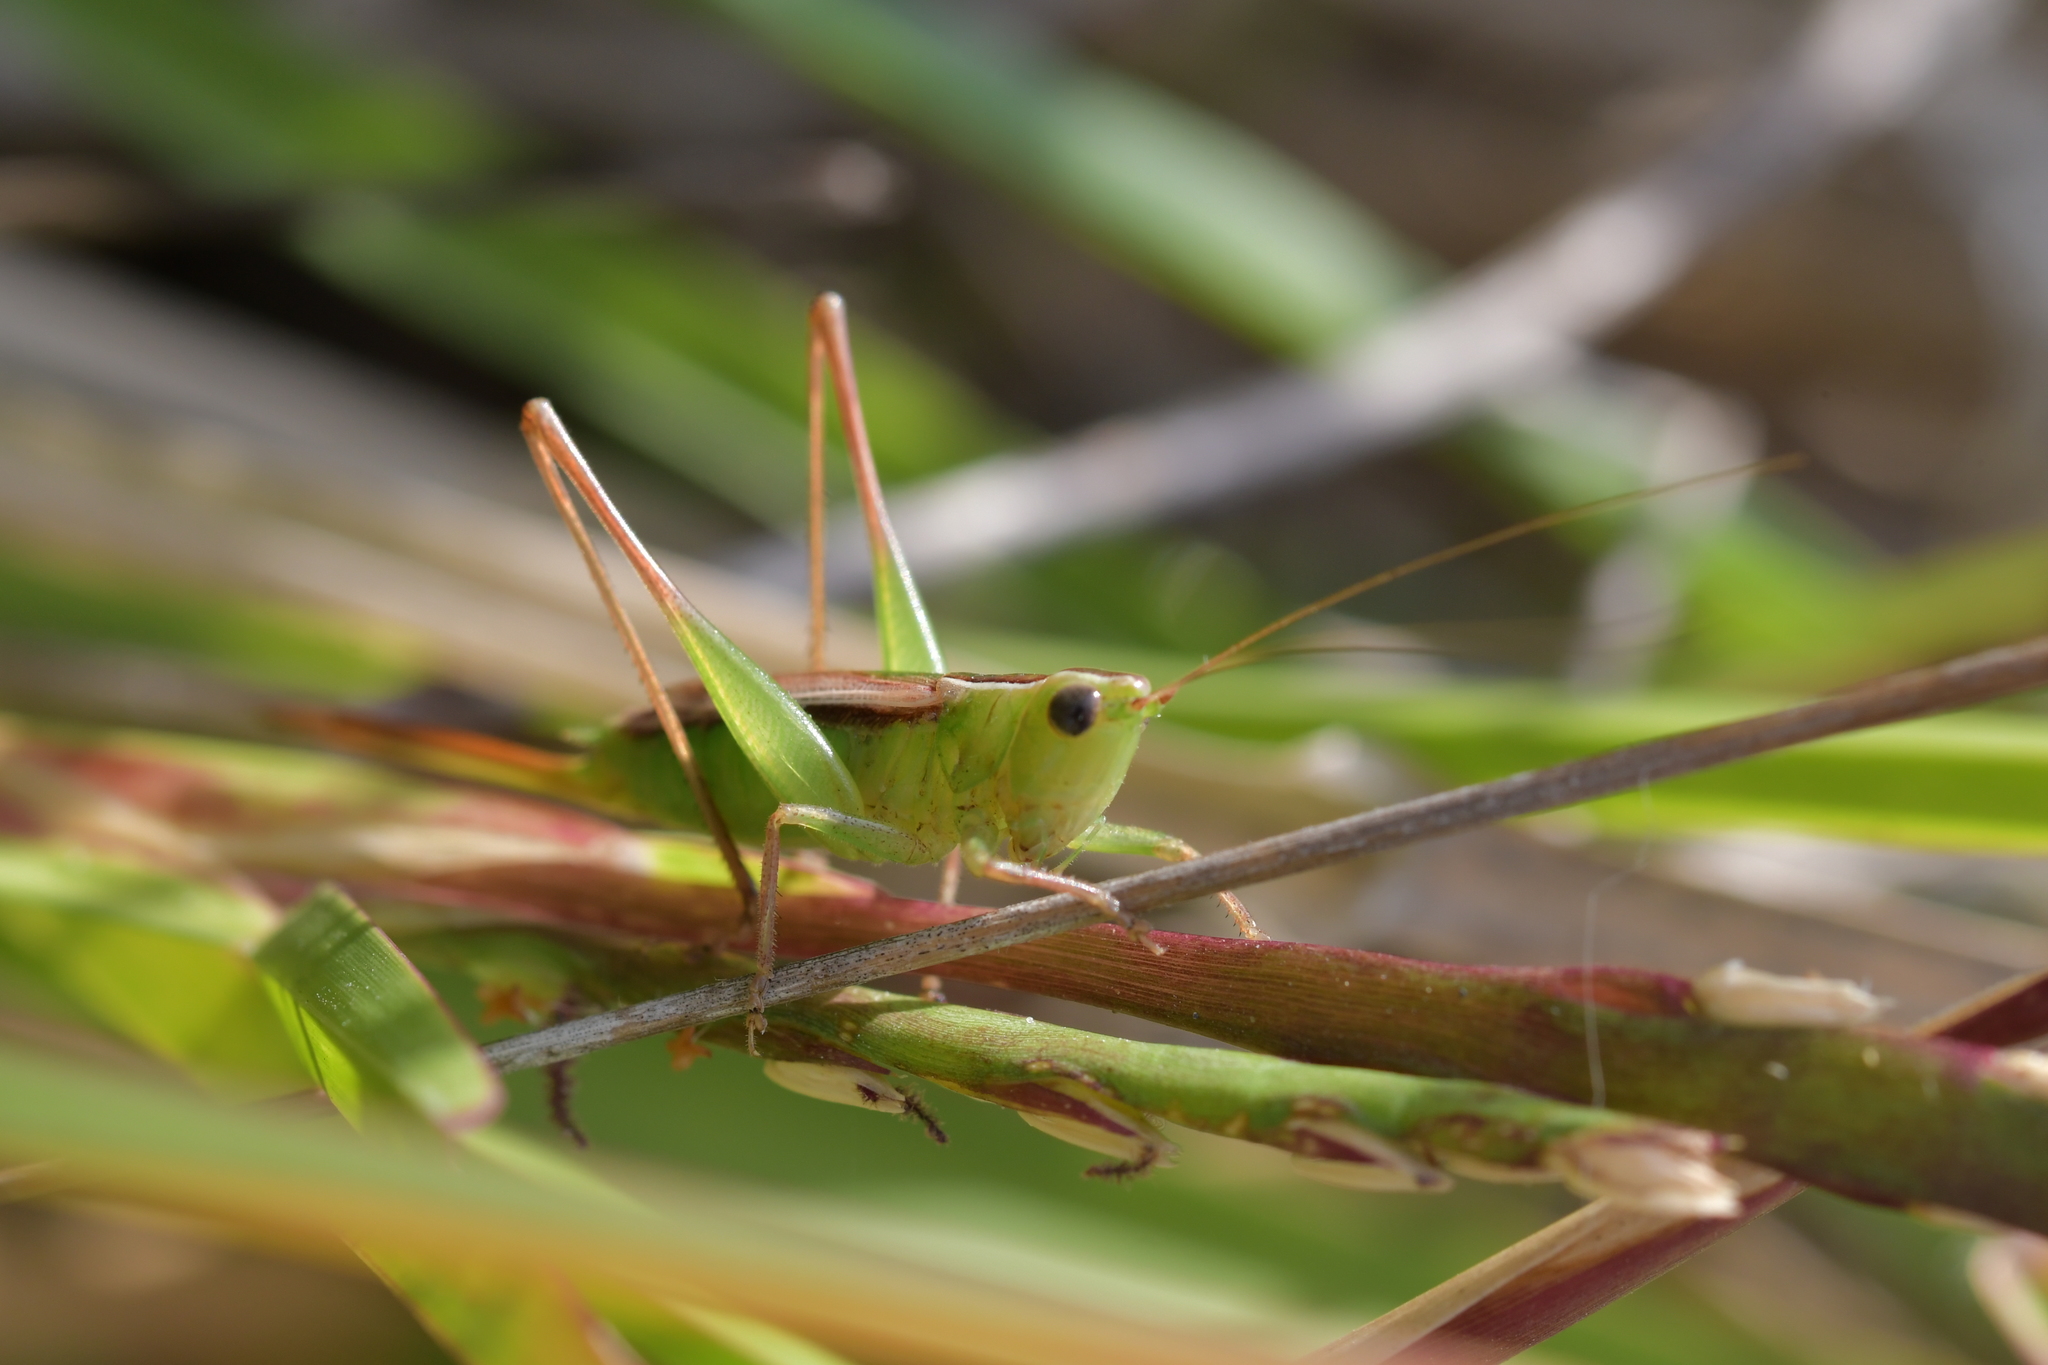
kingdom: Animalia
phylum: Arthropoda
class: Insecta
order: Orthoptera
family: Tettigoniidae
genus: Conocephalus
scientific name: Conocephalus albescens
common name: Whitish meadow katydid
